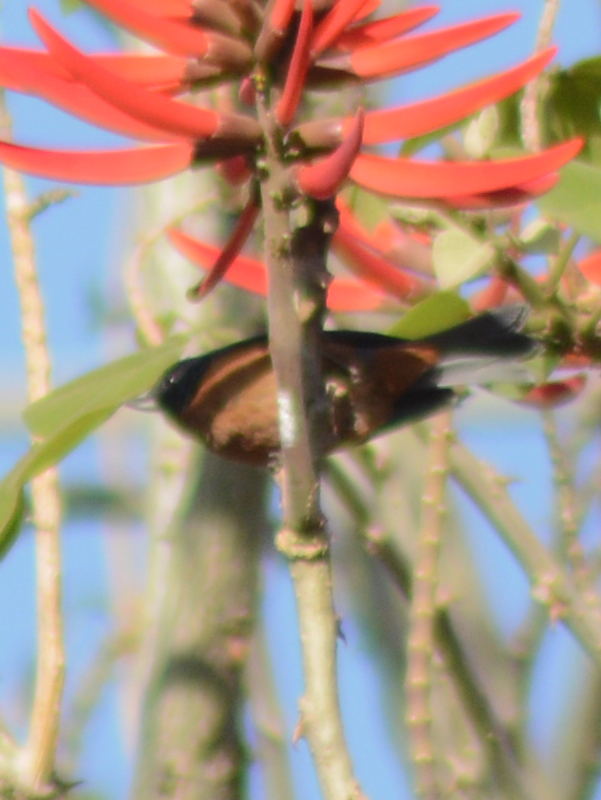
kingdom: Animalia
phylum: Chordata
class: Aves
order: Passeriformes
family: Thraupidae
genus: Diglossa
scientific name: Diglossa baritula
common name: Cinnamon-bellied flowerpiercer
